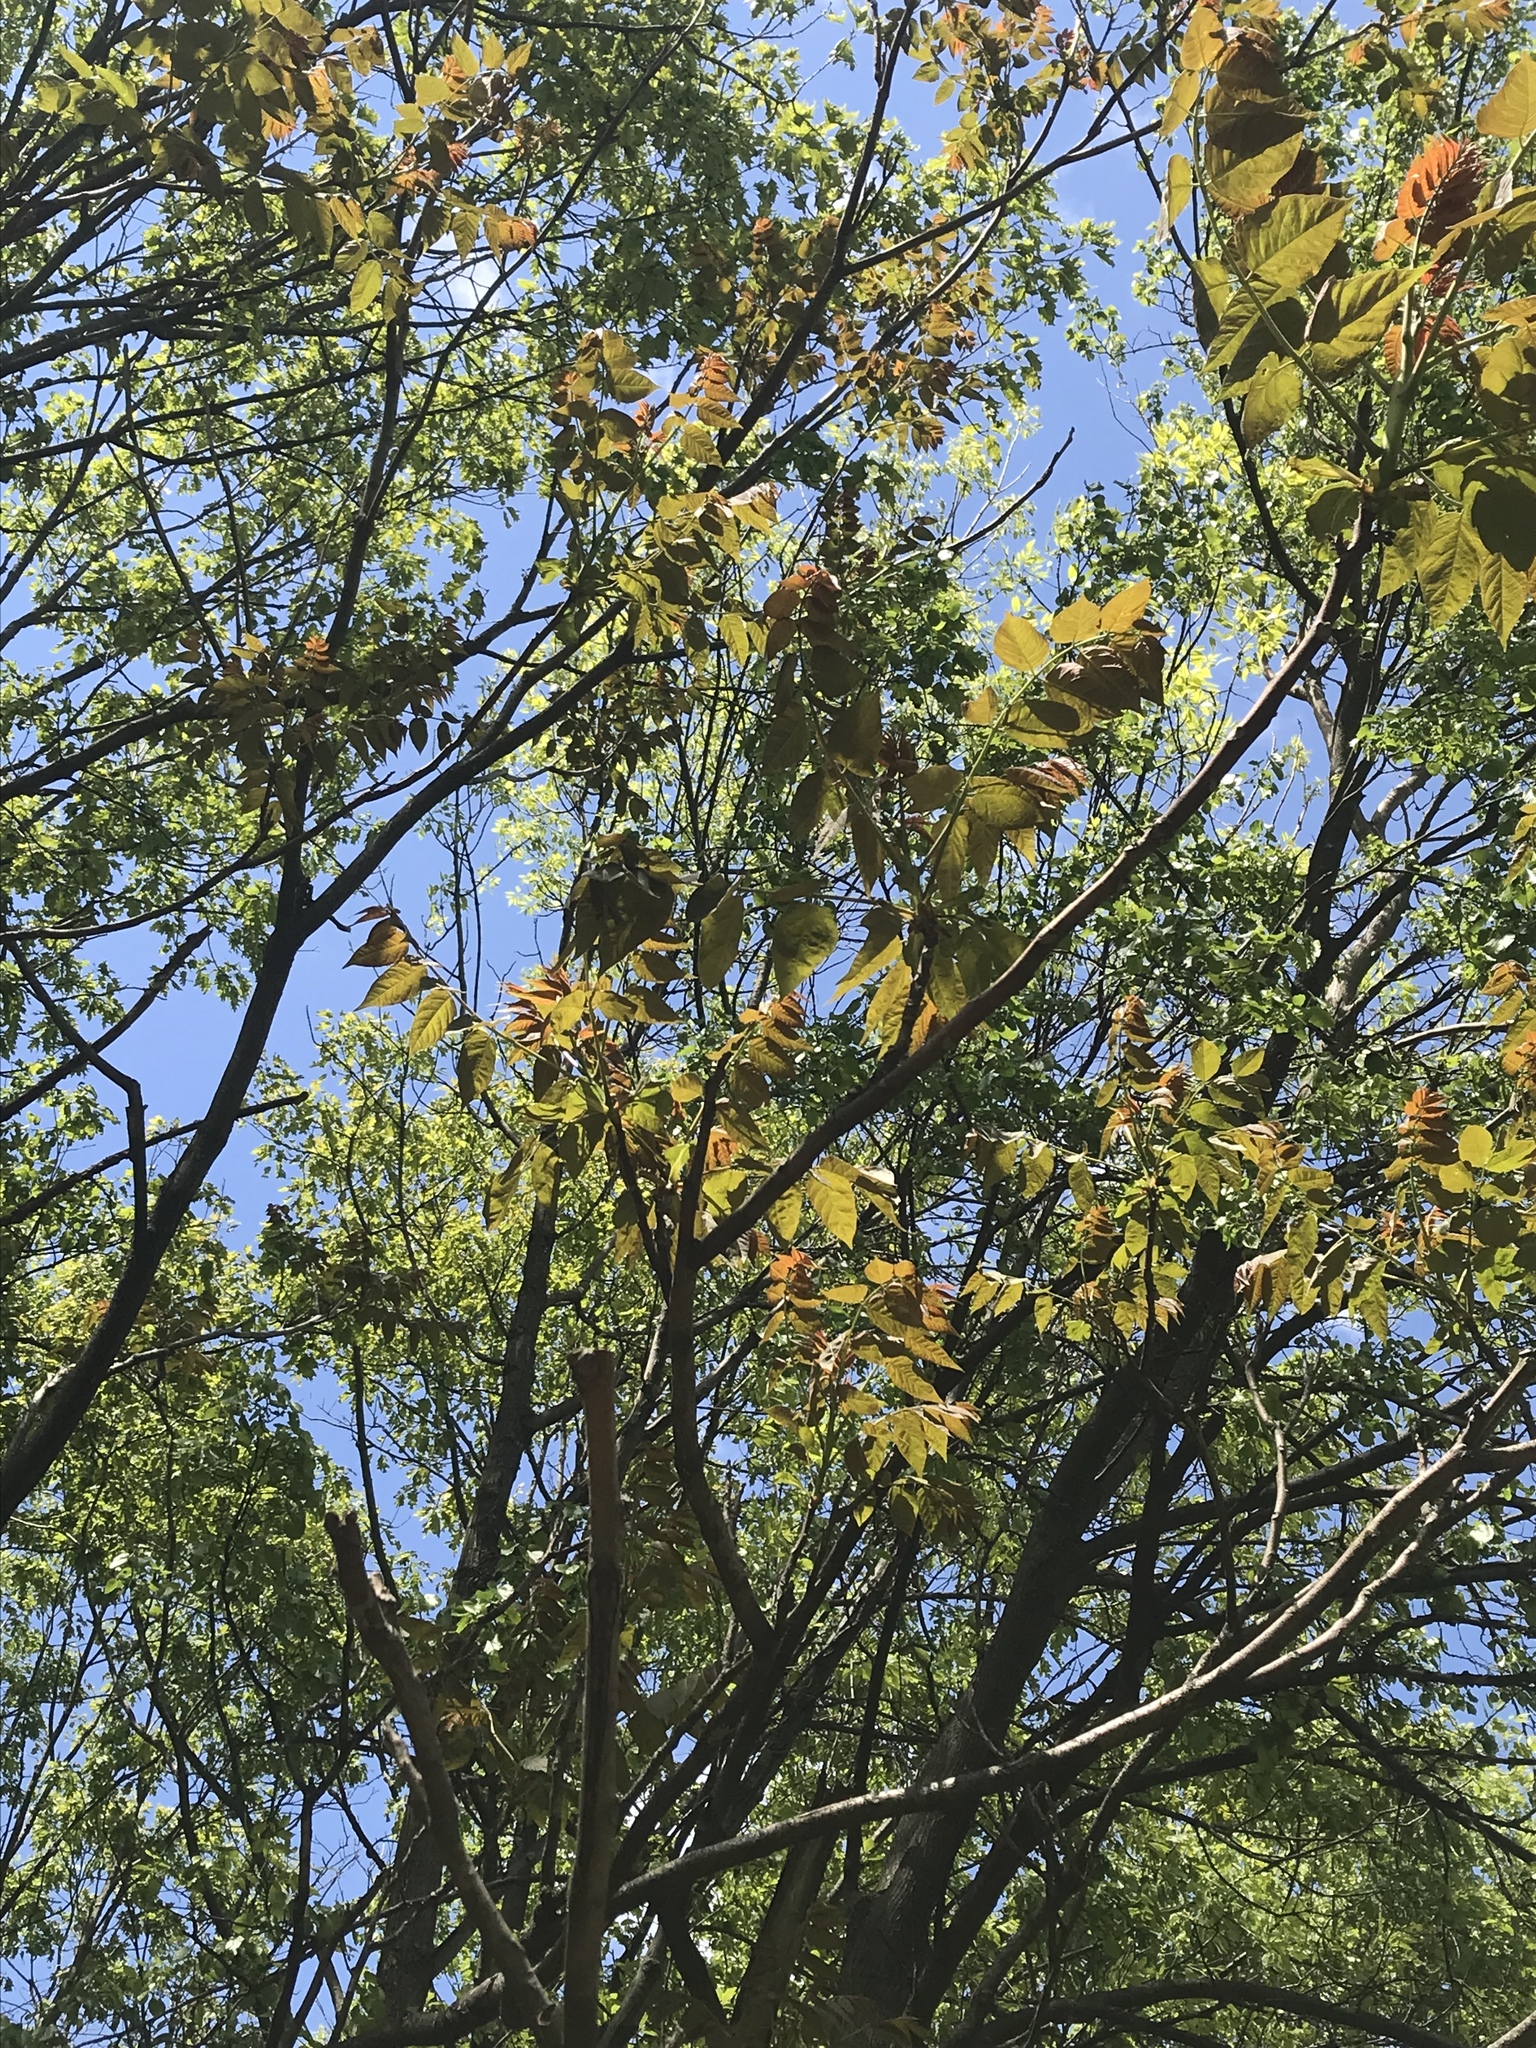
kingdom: Plantae
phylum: Tracheophyta
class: Magnoliopsida
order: Sapindales
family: Simaroubaceae
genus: Ailanthus
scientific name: Ailanthus altissima
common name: Tree-of-heaven
